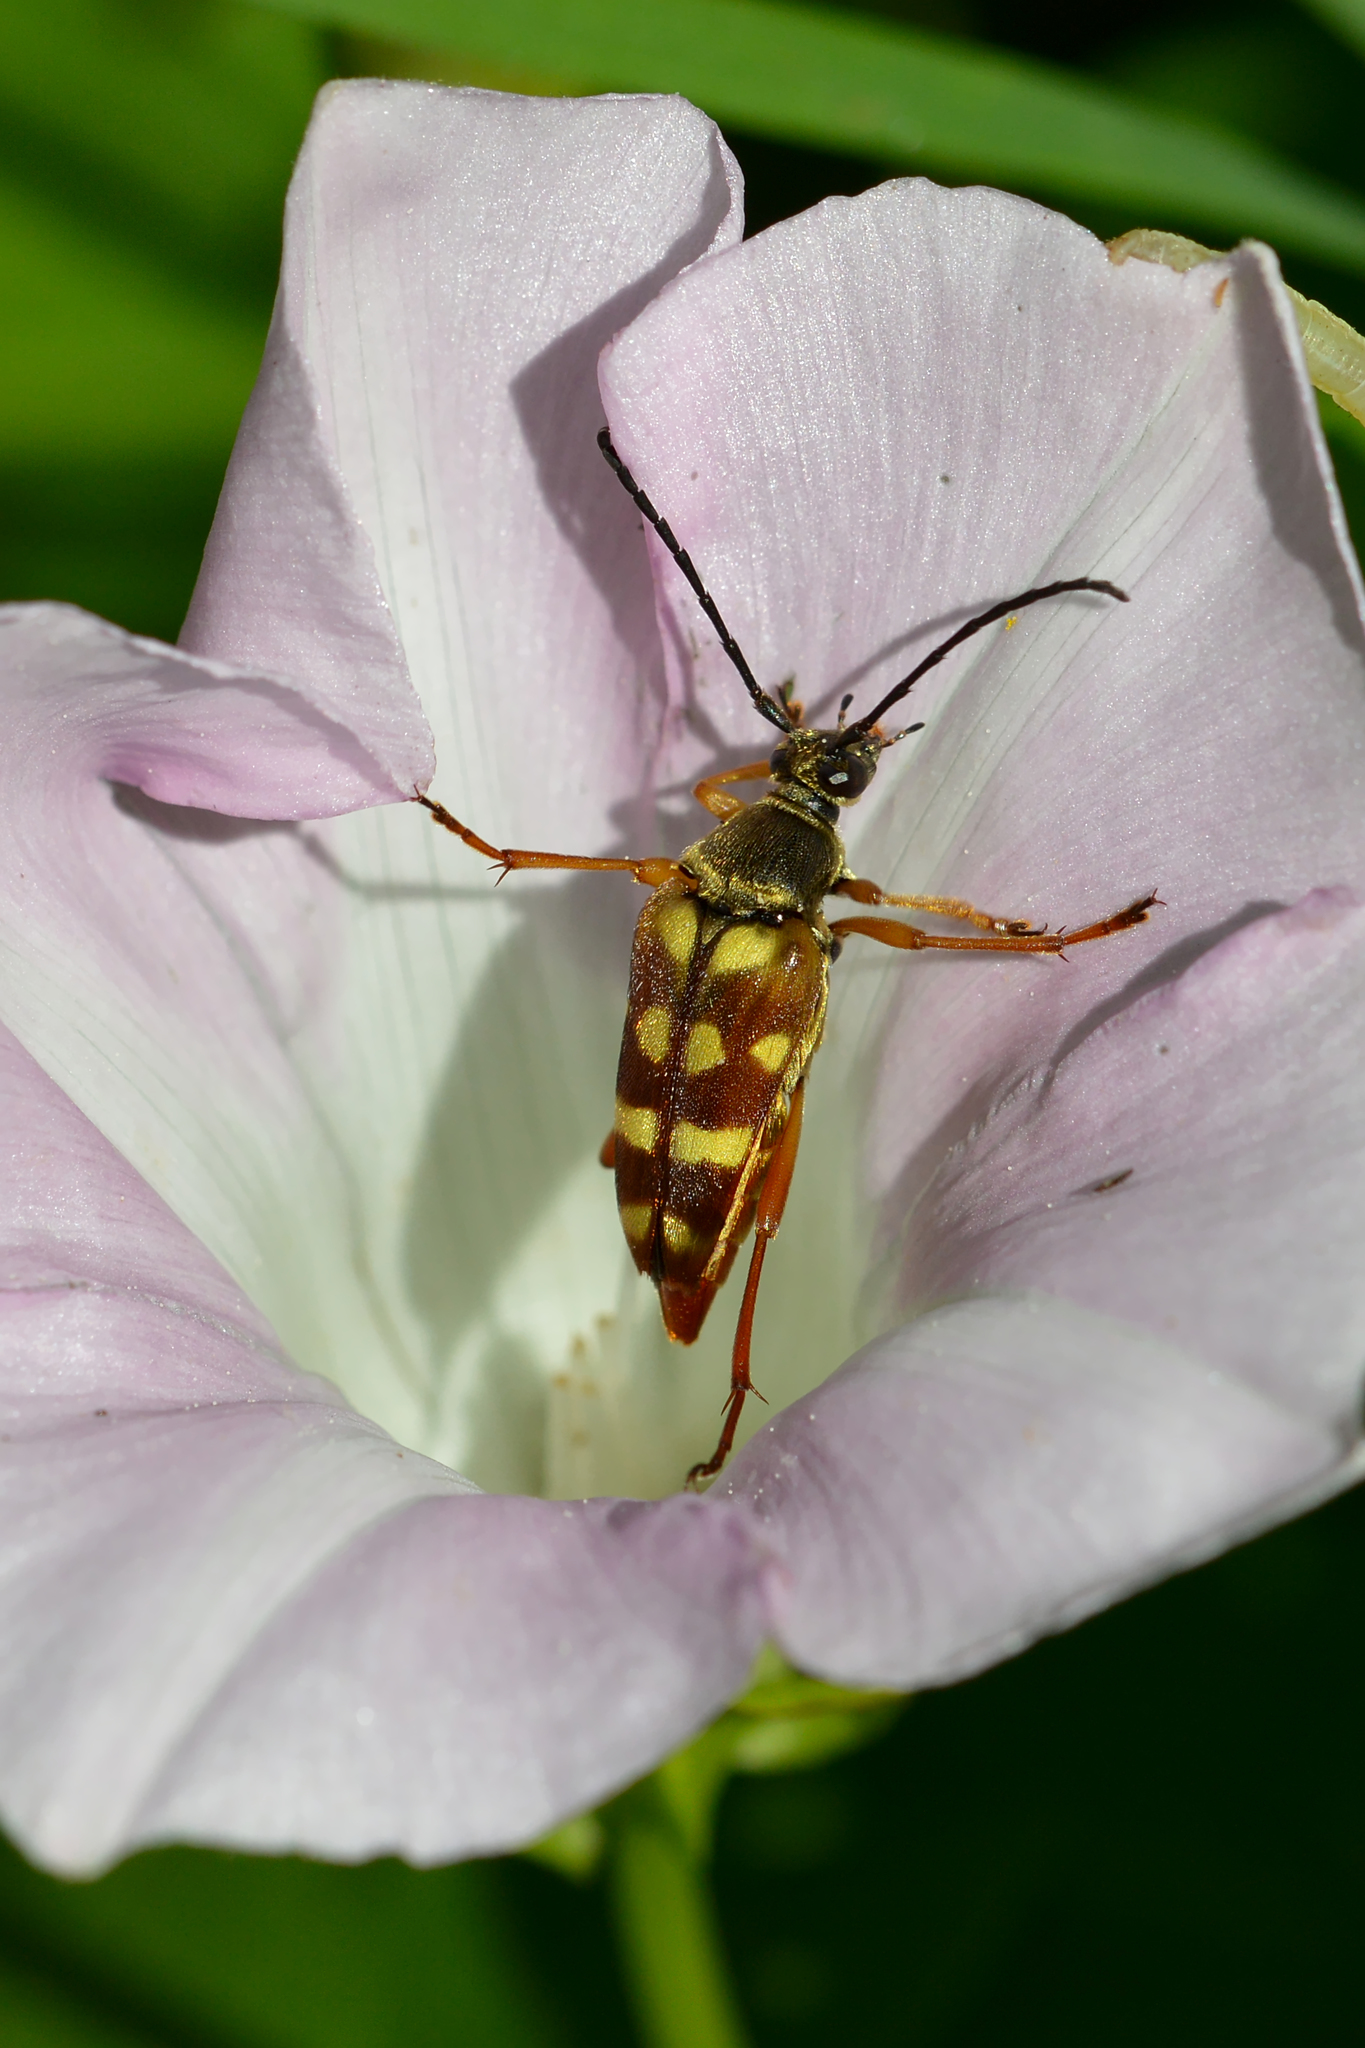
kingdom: Plantae
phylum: Tracheophyta
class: Magnoliopsida
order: Solanales
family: Convolvulaceae
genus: Calystegia
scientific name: Calystegia sepium
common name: Hedge bindweed
